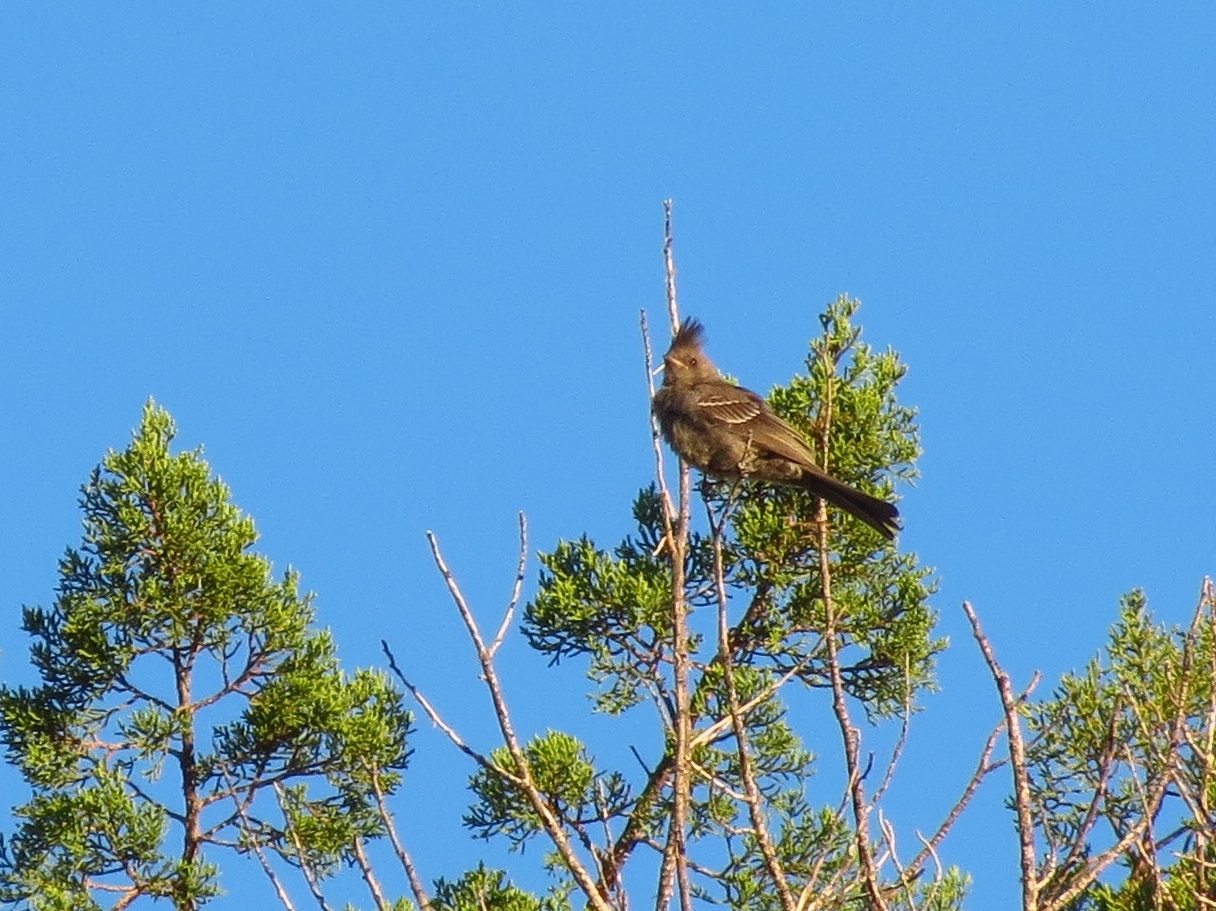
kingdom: Animalia
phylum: Chordata
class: Aves
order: Passeriformes
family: Ptilogonatidae
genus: Phainopepla
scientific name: Phainopepla nitens
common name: Phainopepla
